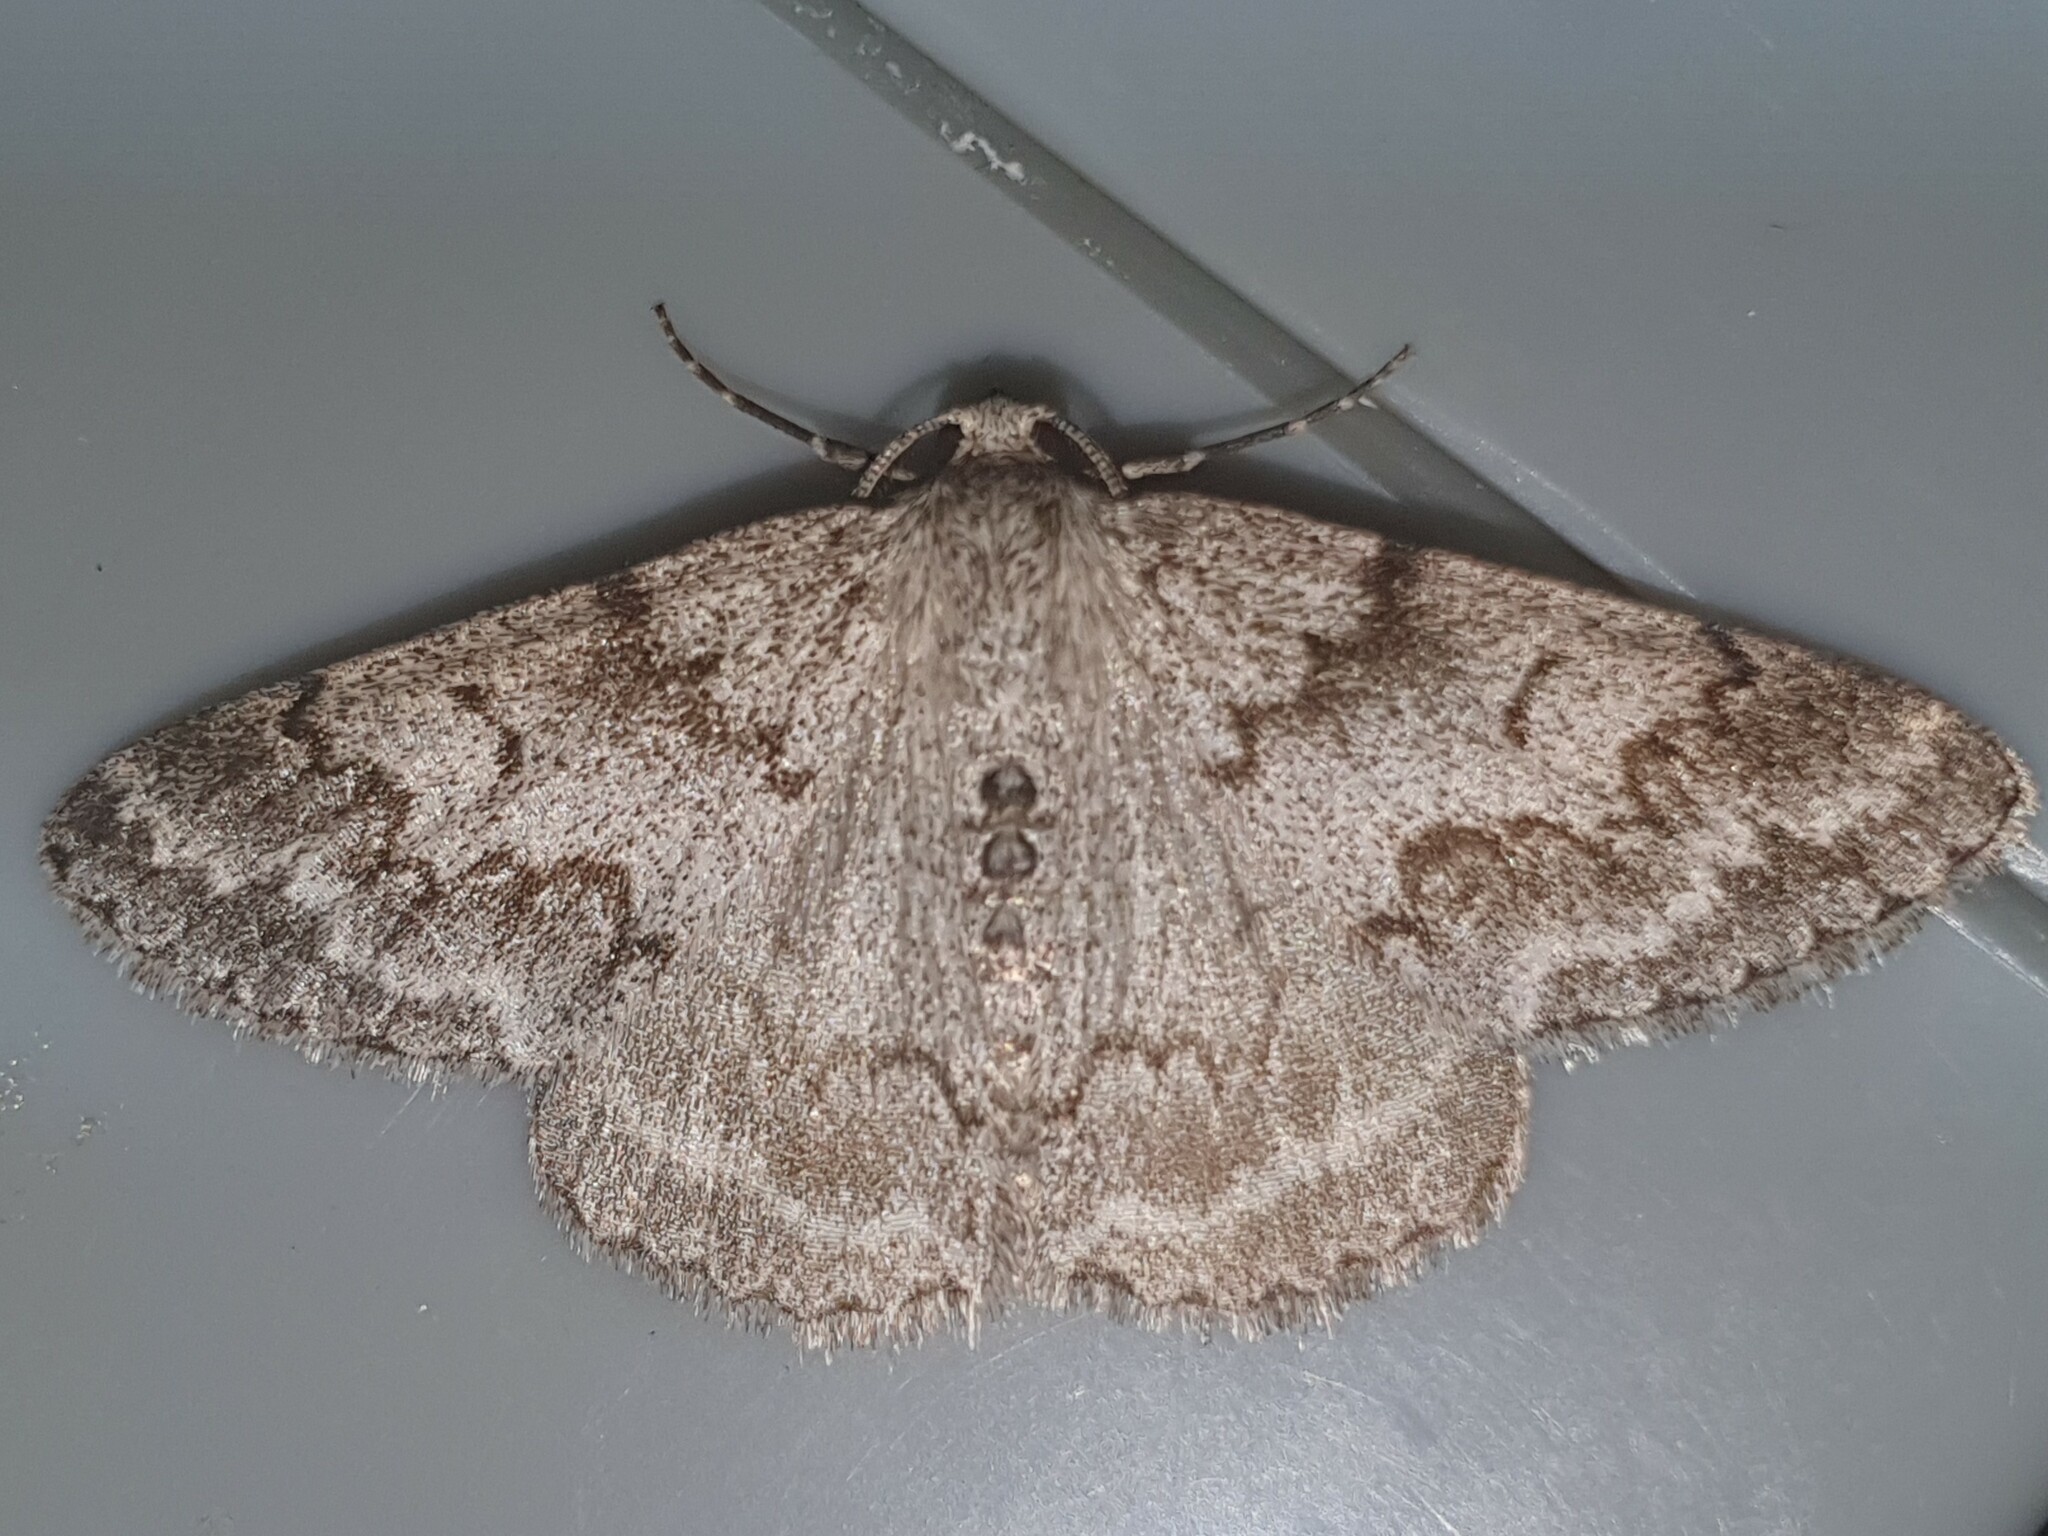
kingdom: Animalia
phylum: Arthropoda
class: Insecta
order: Lepidoptera
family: Geometridae
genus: Pseudoterpna
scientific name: Pseudoterpna coronillaria
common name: Jersey emerald
